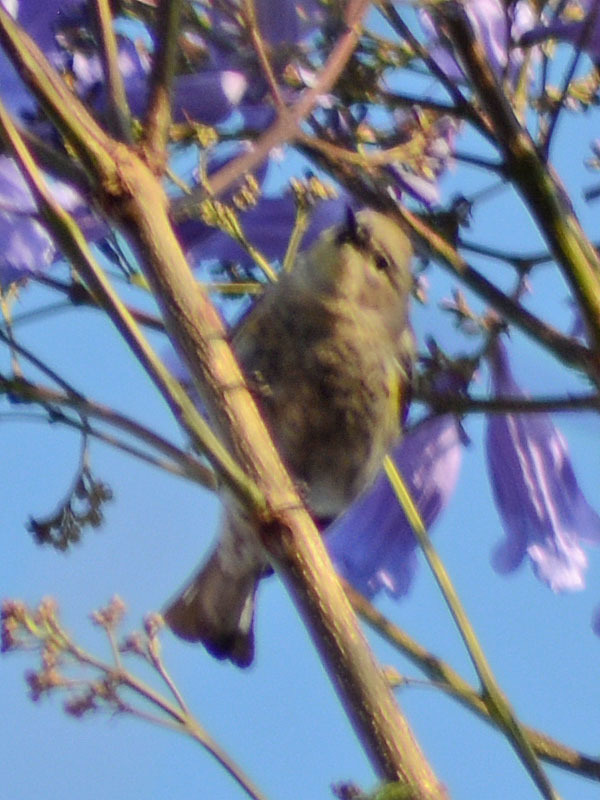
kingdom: Animalia
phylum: Chordata
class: Aves
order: Passeriformes
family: Parulidae
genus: Setophaga
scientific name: Setophaga coronata
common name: Myrtle warbler
